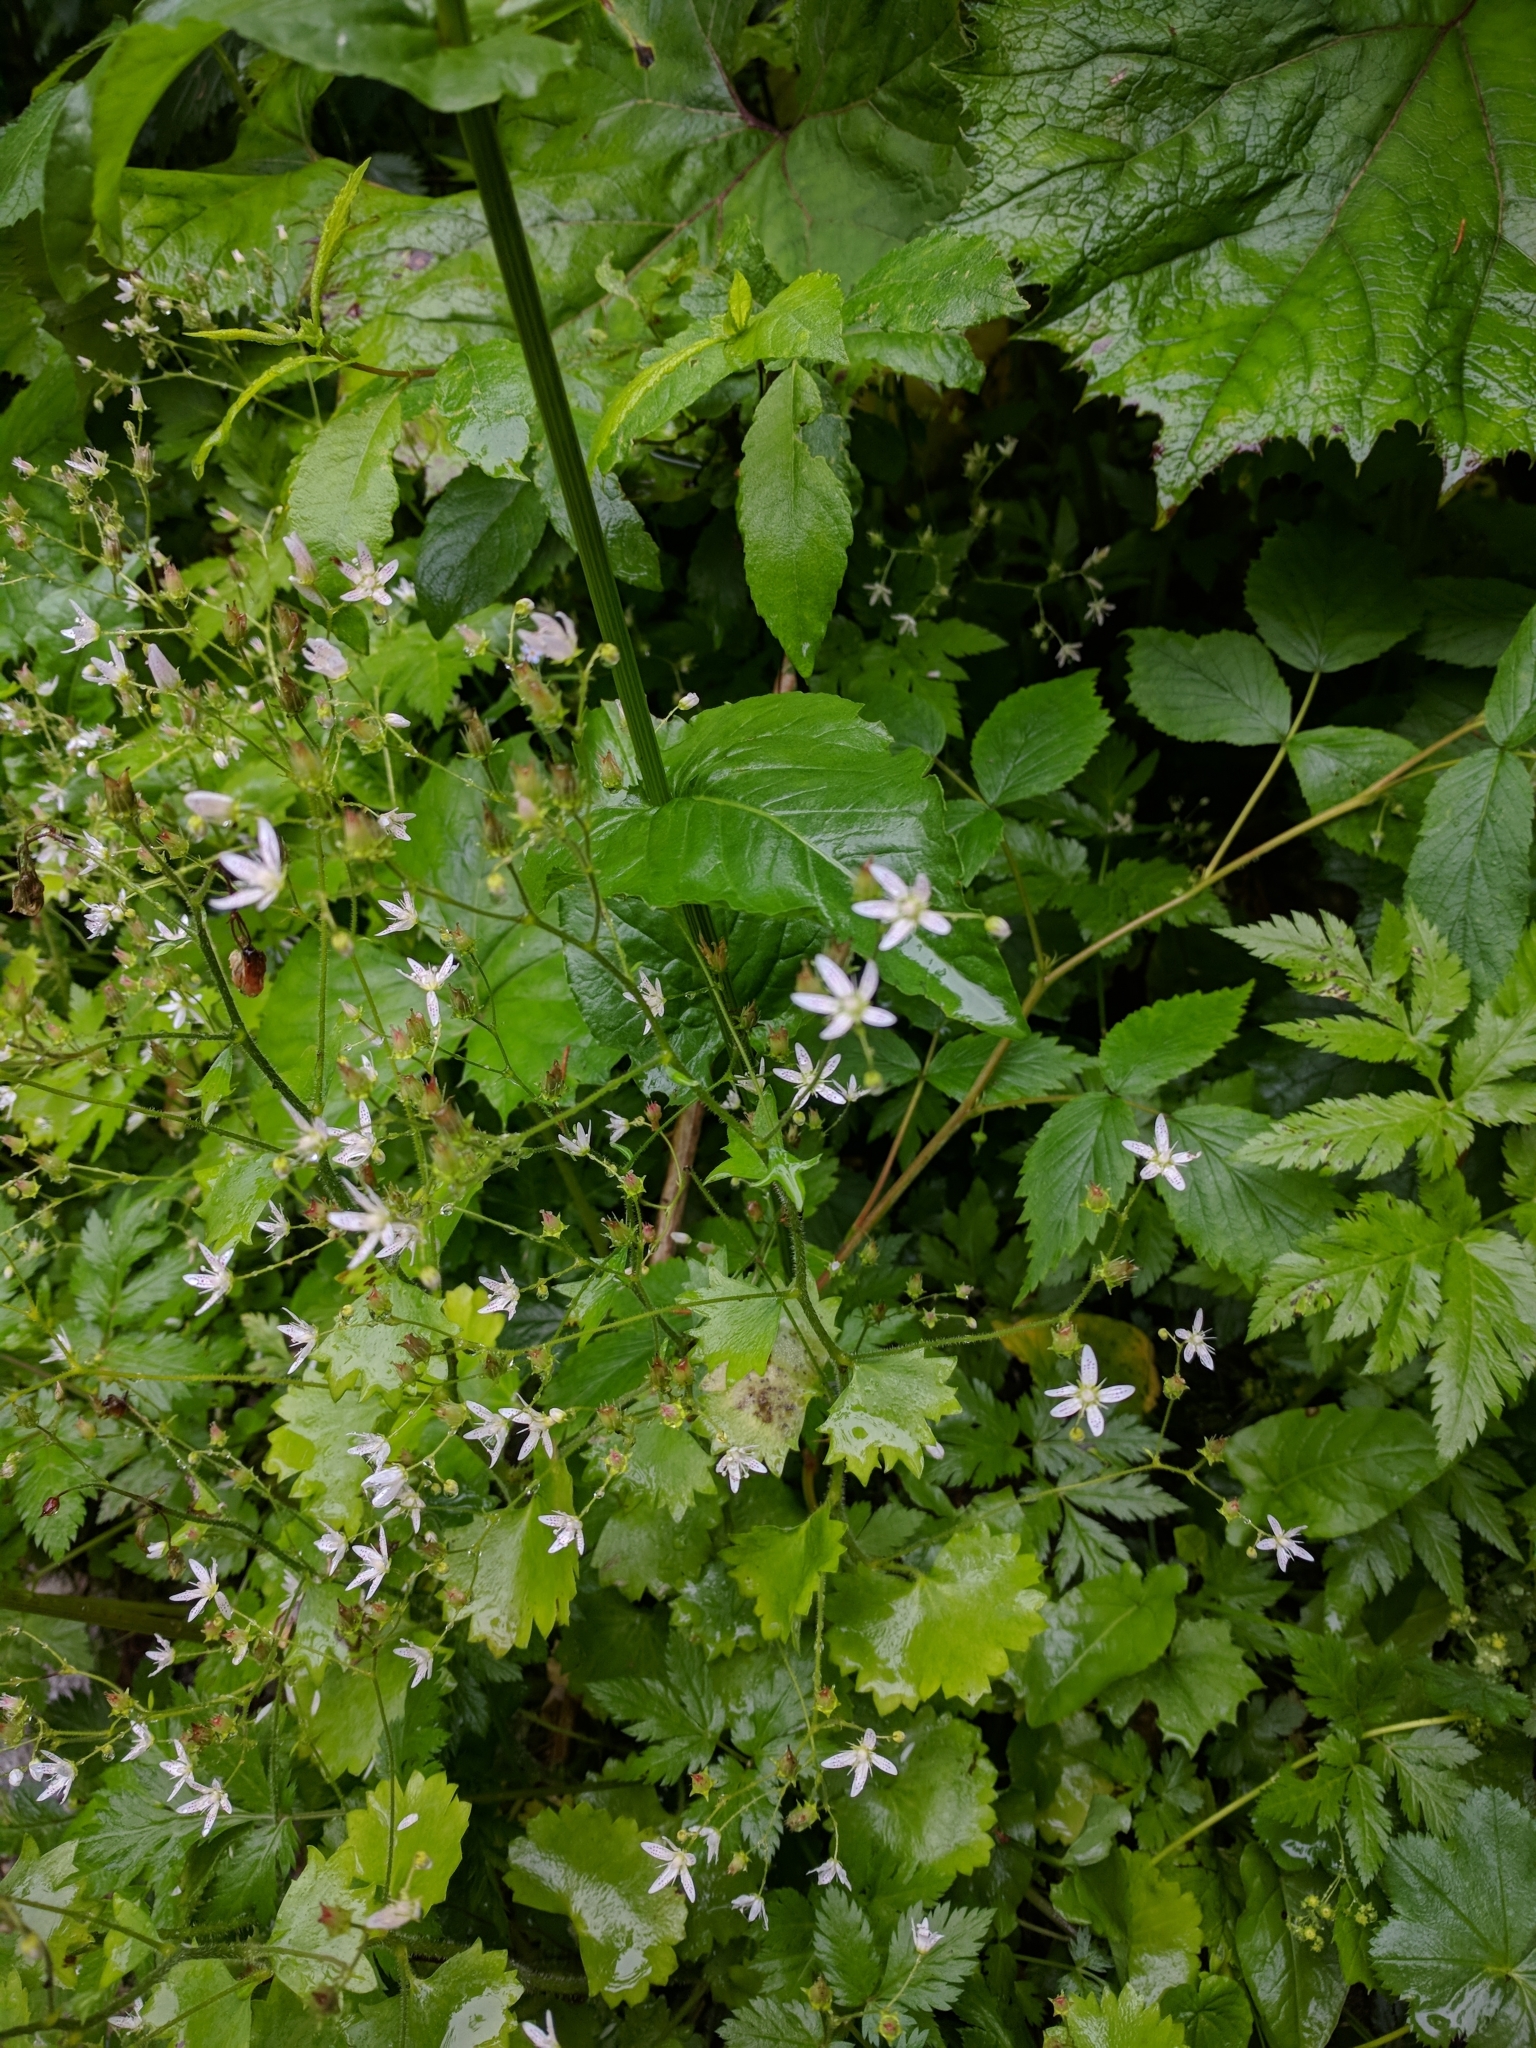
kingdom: Plantae
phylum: Tracheophyta
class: Magnoliopsida
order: Saxifragales
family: Saxifragaceae
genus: Saxifraga
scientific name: Saxifraga rotundifolia
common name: Round-leaved saxifrage
